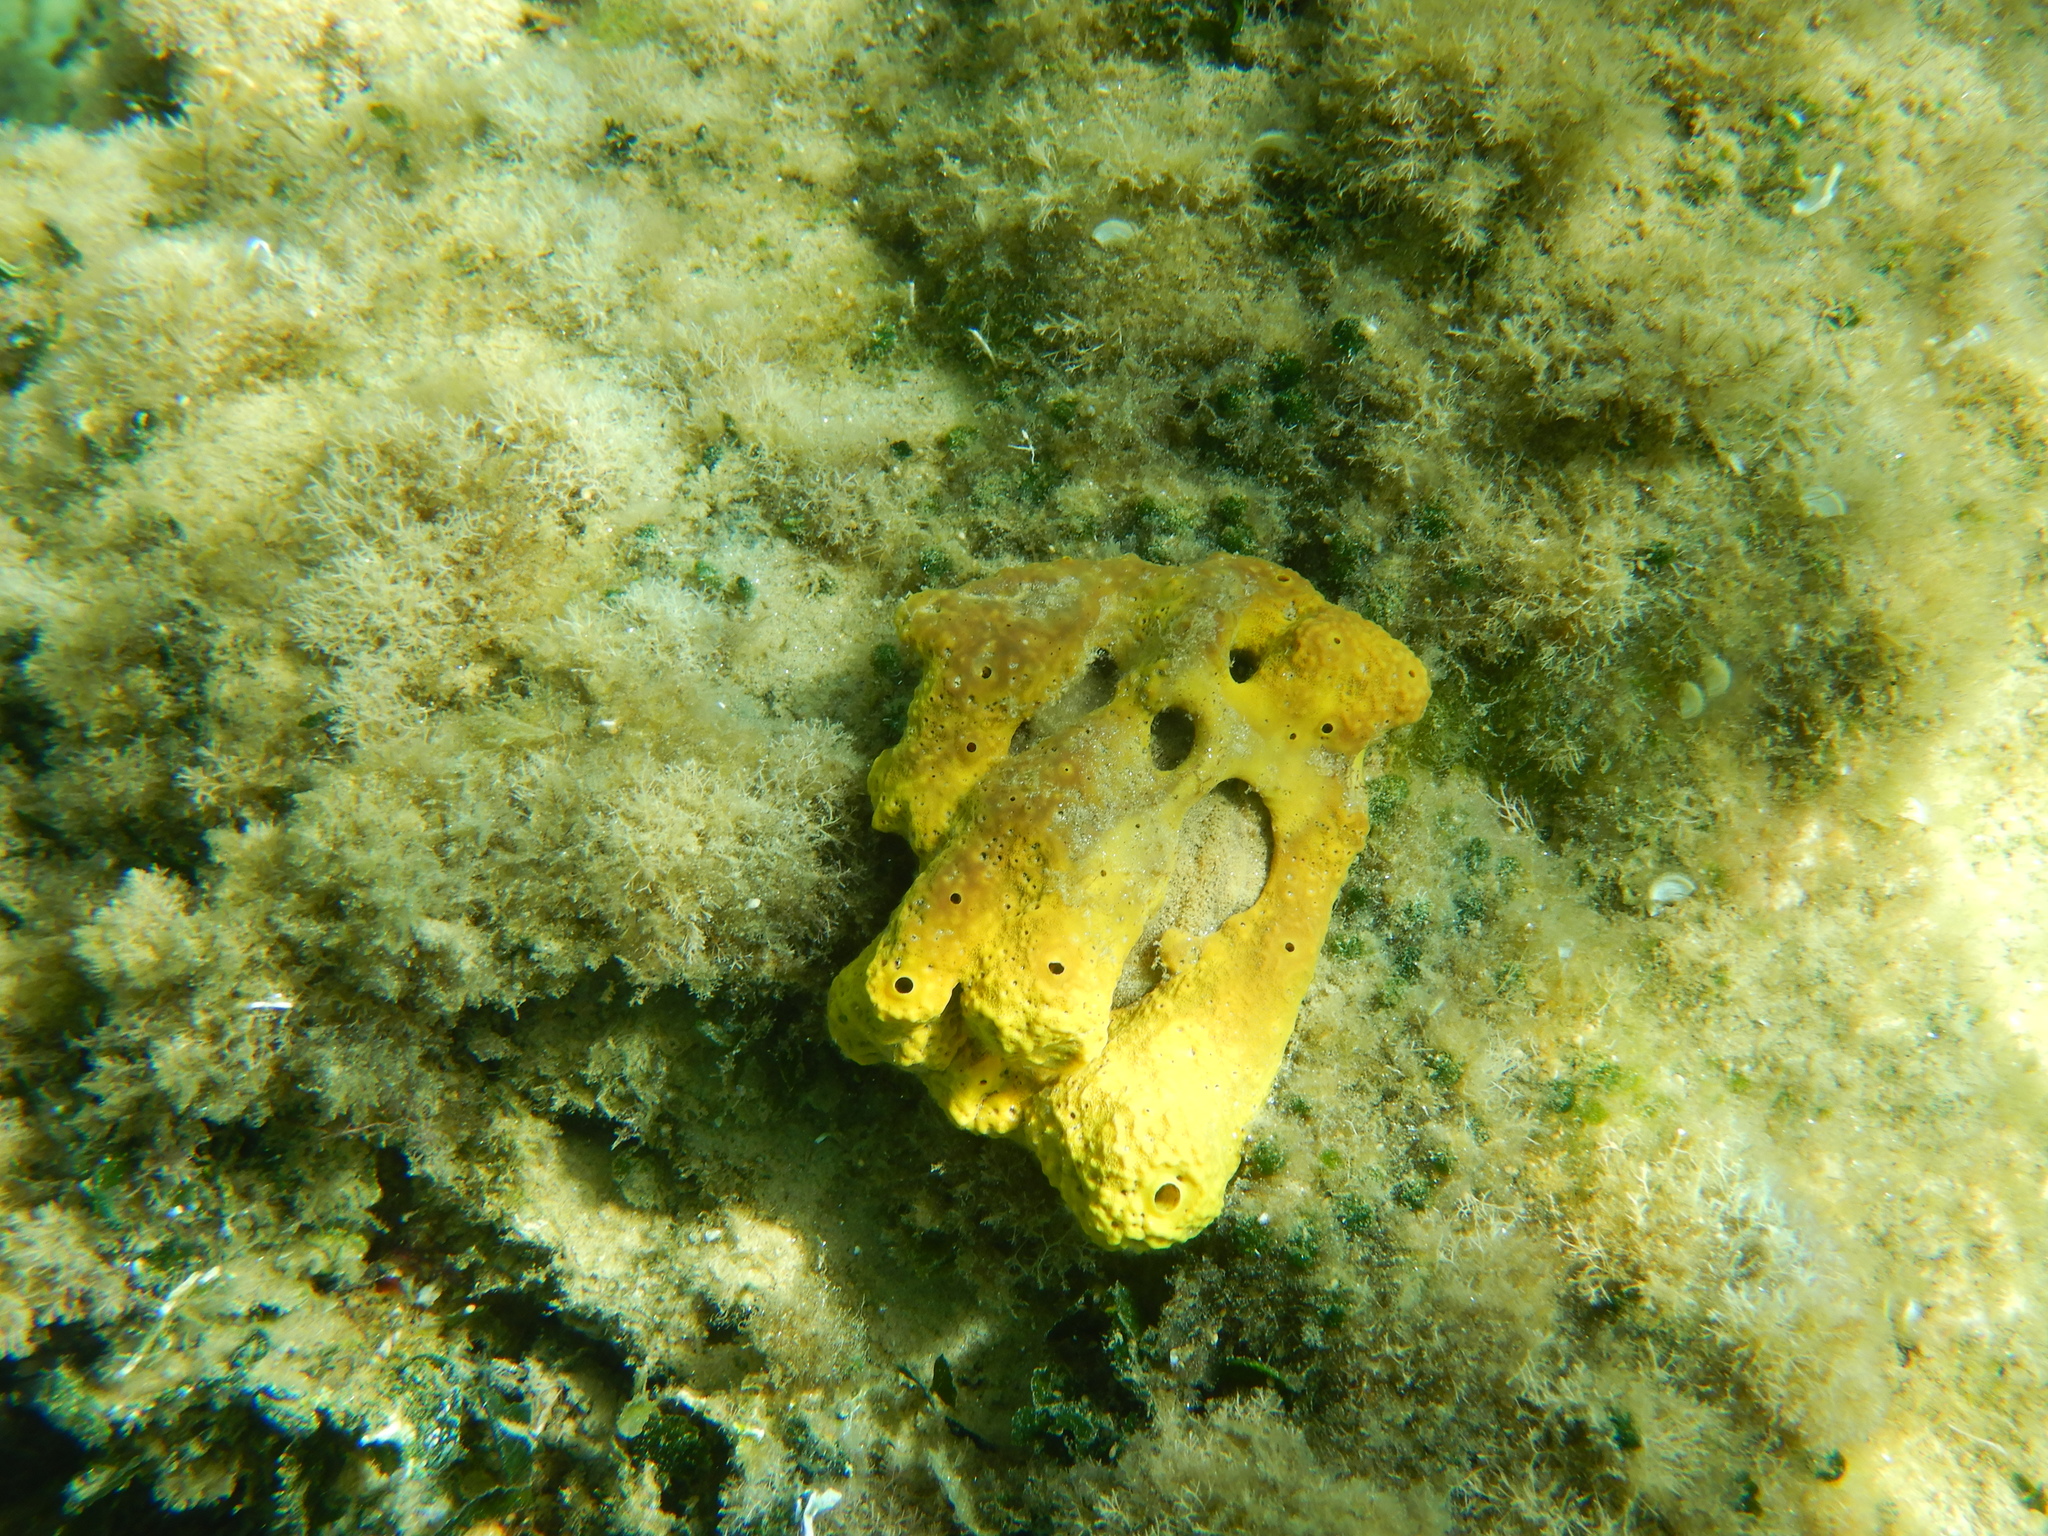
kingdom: Animalia
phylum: Porifera
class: Demospongiae
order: Verongiida
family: Aplysinidae
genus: Aplysina
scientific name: Aplysina aerophoba
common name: Aureate sponge
